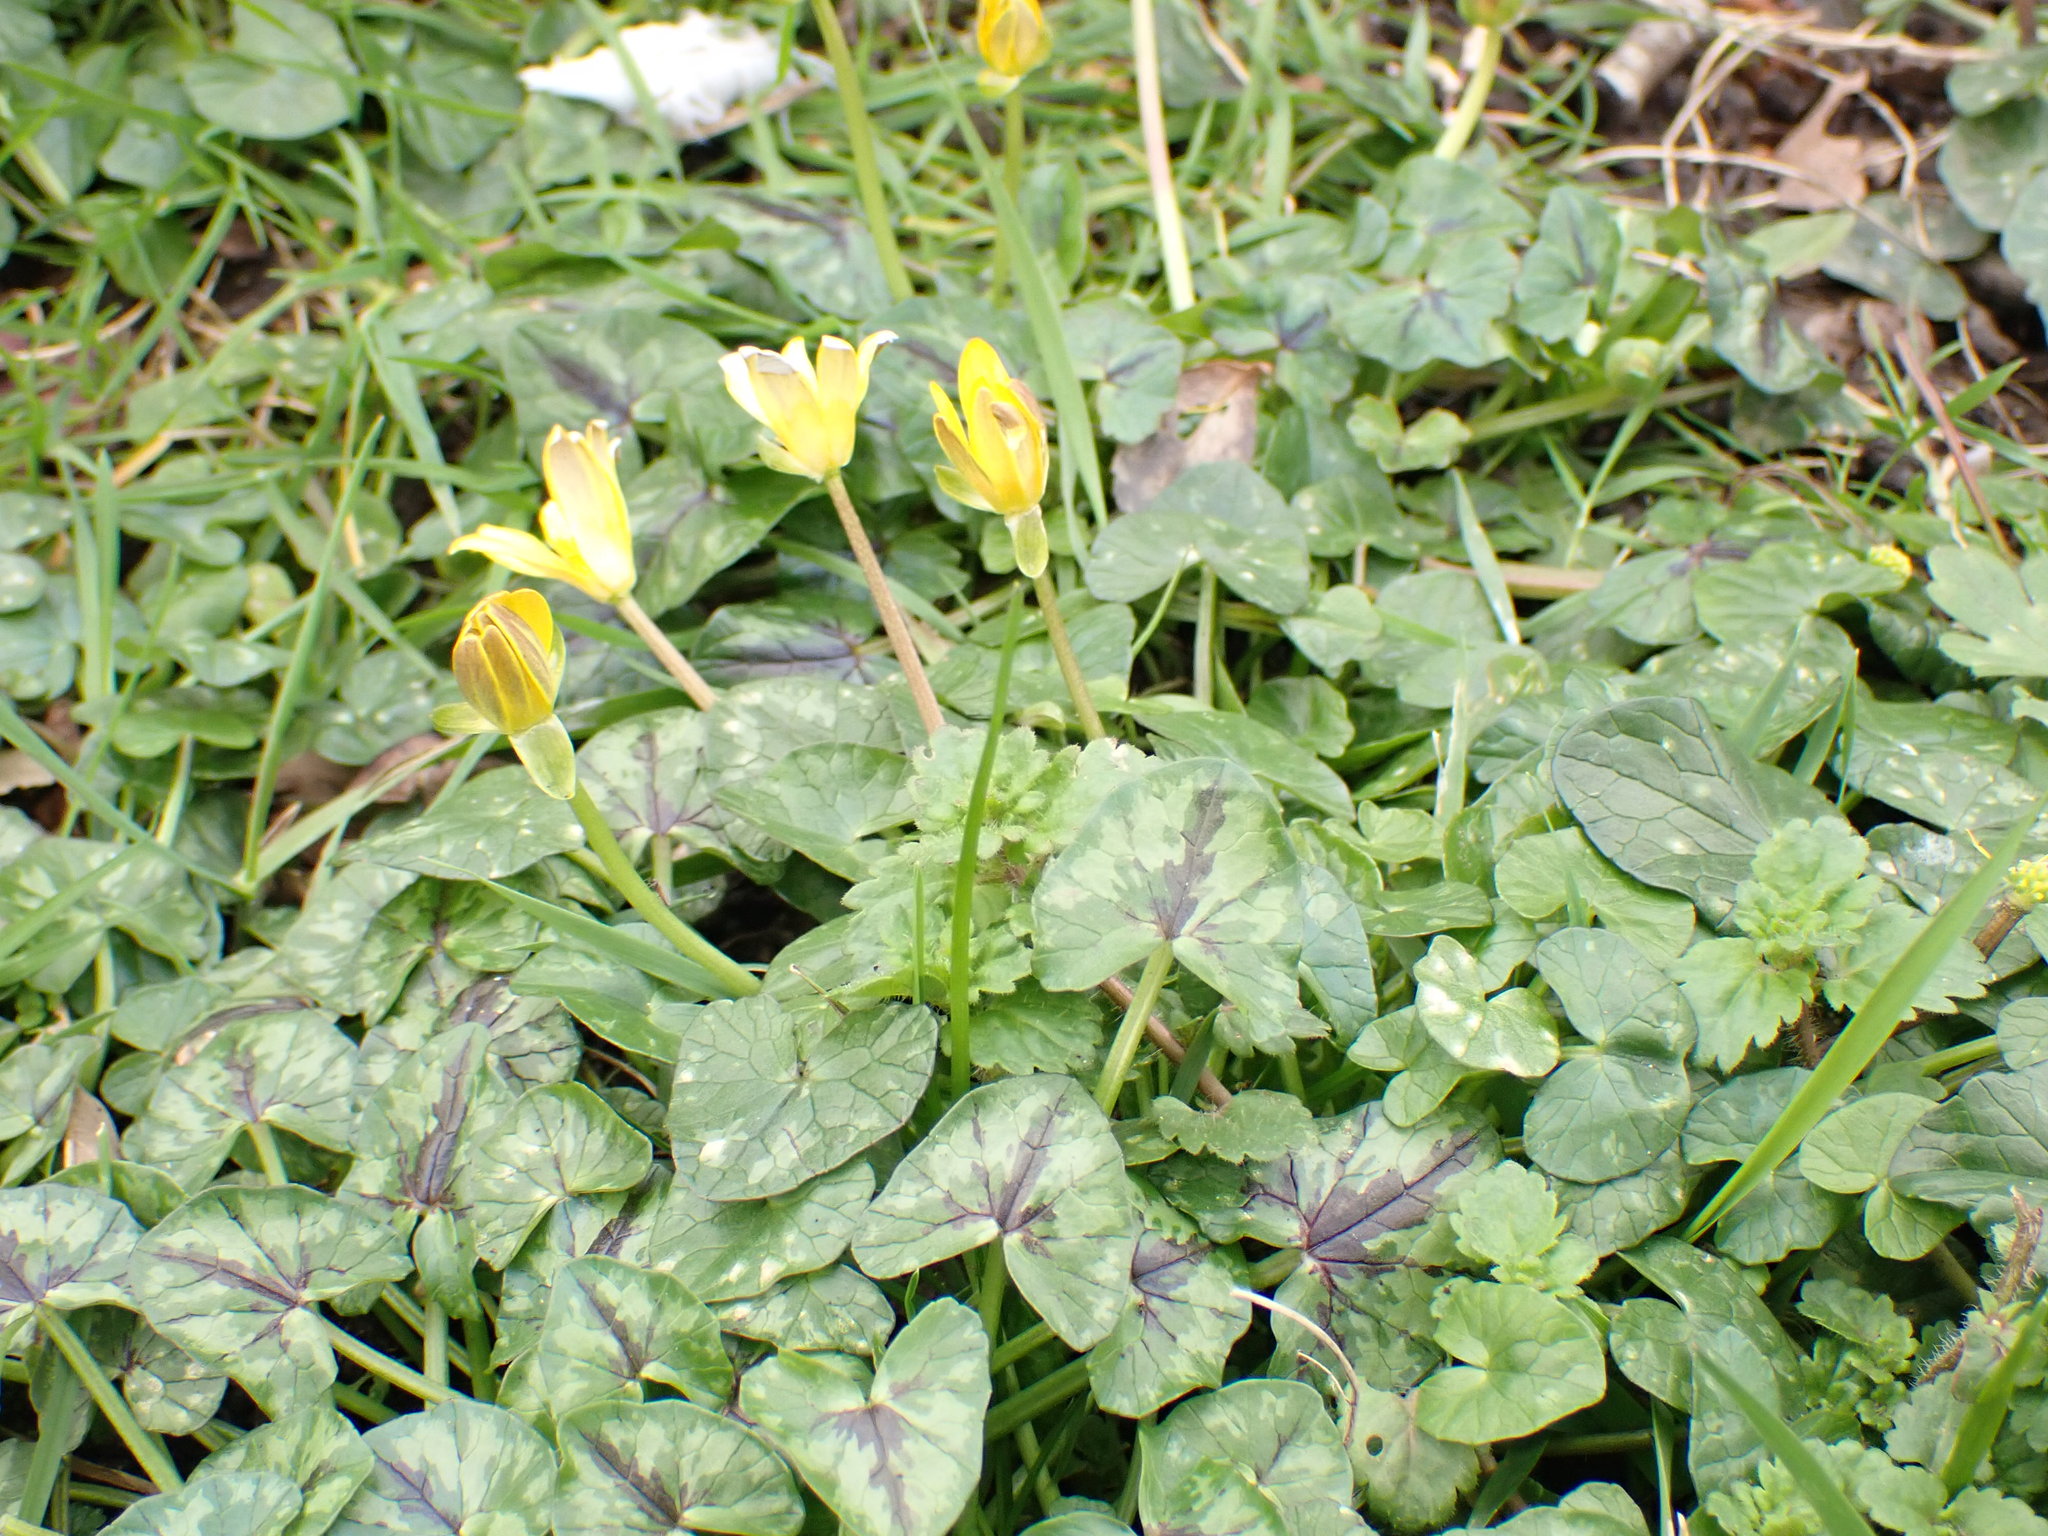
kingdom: Plantae
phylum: Tracheophyta
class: Magnoliopsida
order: Ranunculales
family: Ranunculaceae
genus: Ficaria
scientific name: Ficaria verna
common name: Lesser celandine
